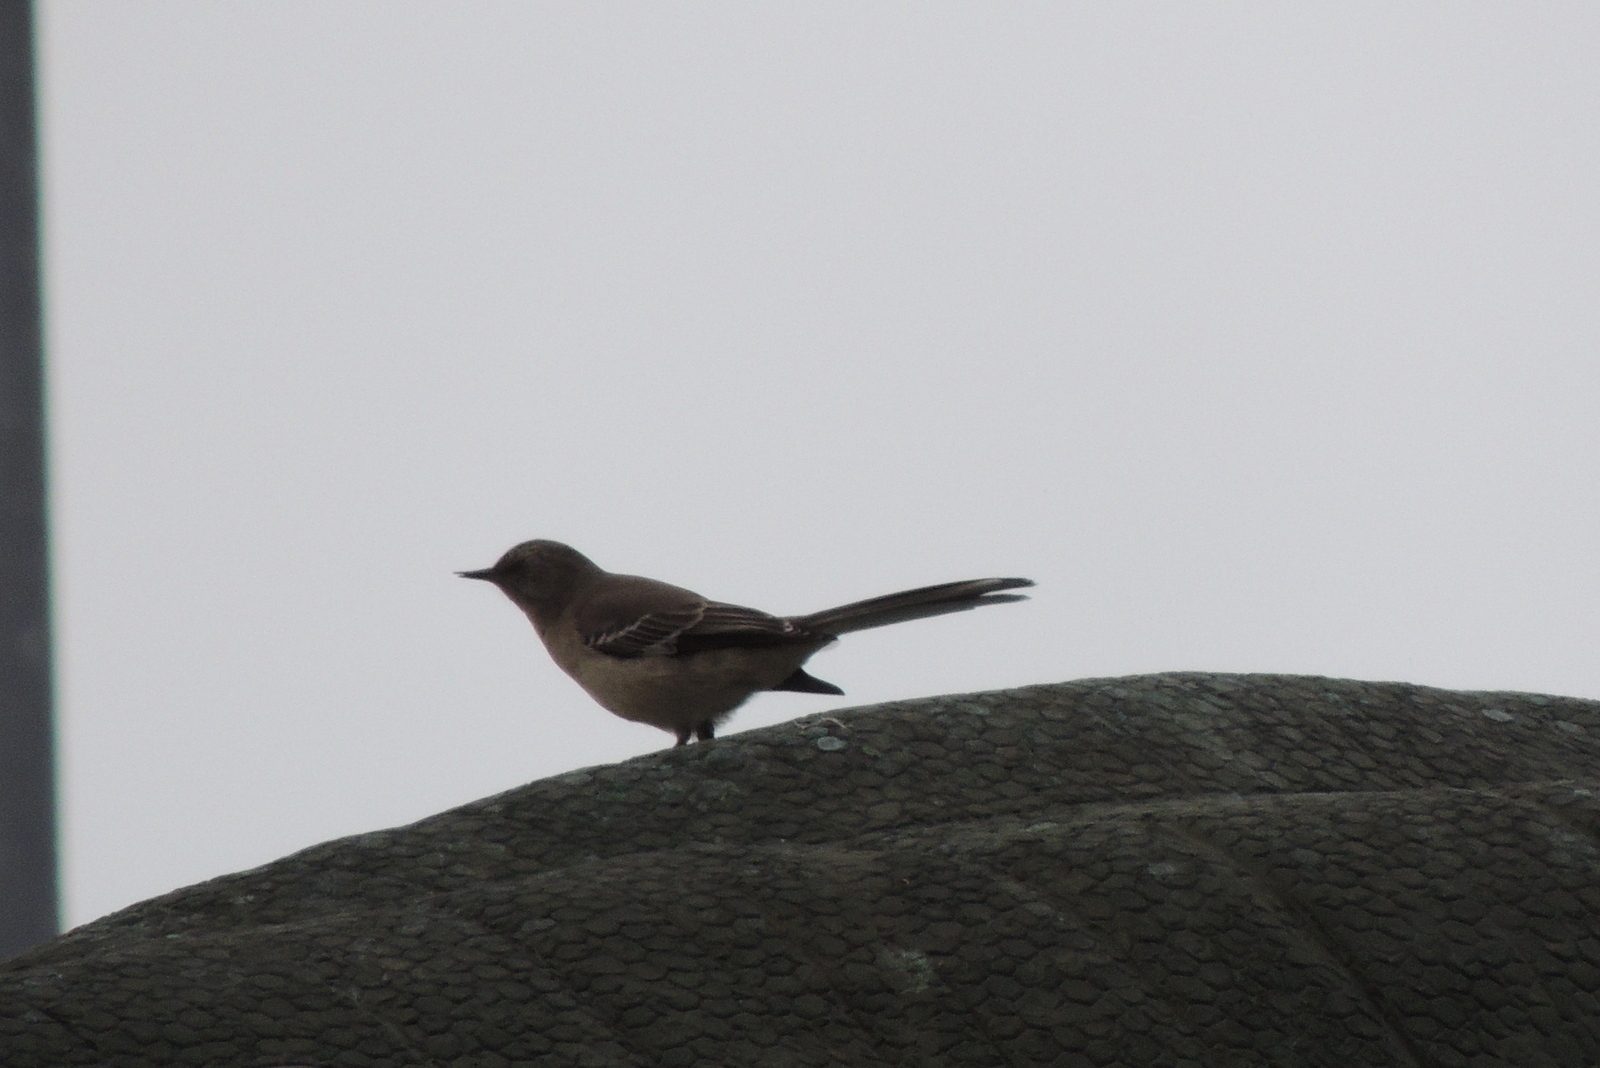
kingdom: Animalia
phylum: Chordata
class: Aves
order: Passeriformes
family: Mimidae
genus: Mimus
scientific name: Mimus polyglottos
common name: Northern mockingbird
